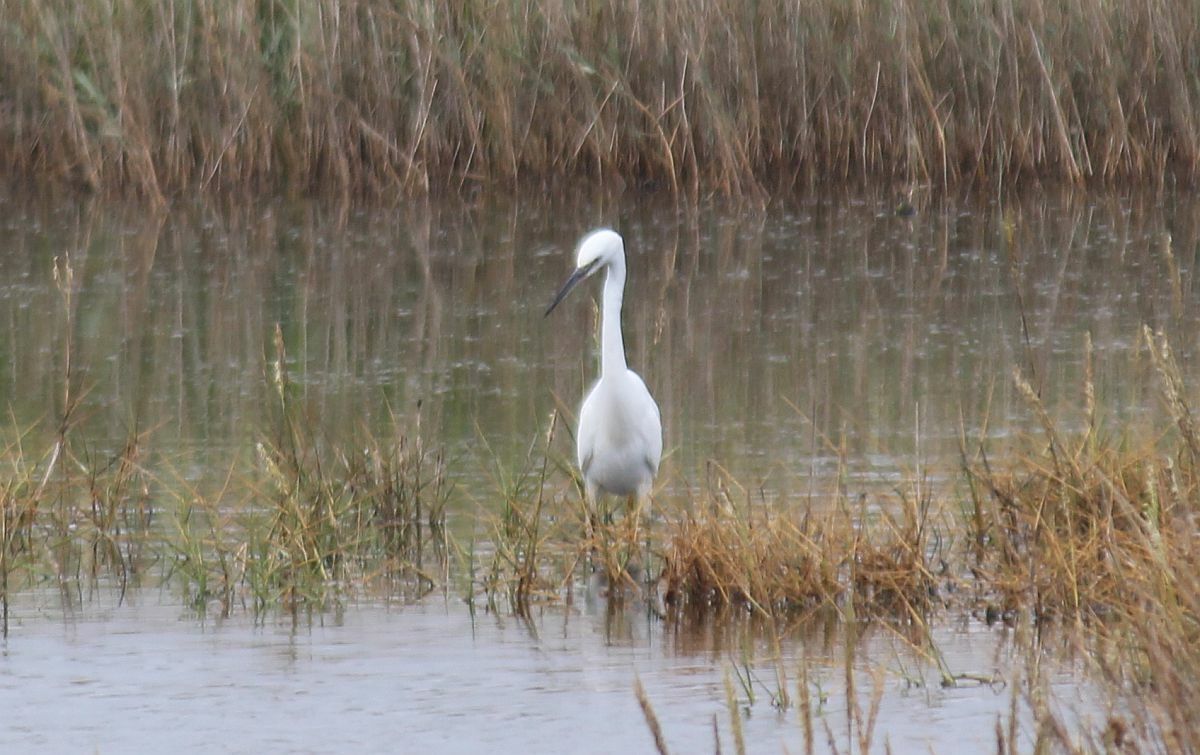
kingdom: Animalia
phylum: Chordata
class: Aves
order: Pelecaniformes
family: Ardeidae
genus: Egretta
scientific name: Egretta garzetta
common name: Little egret
